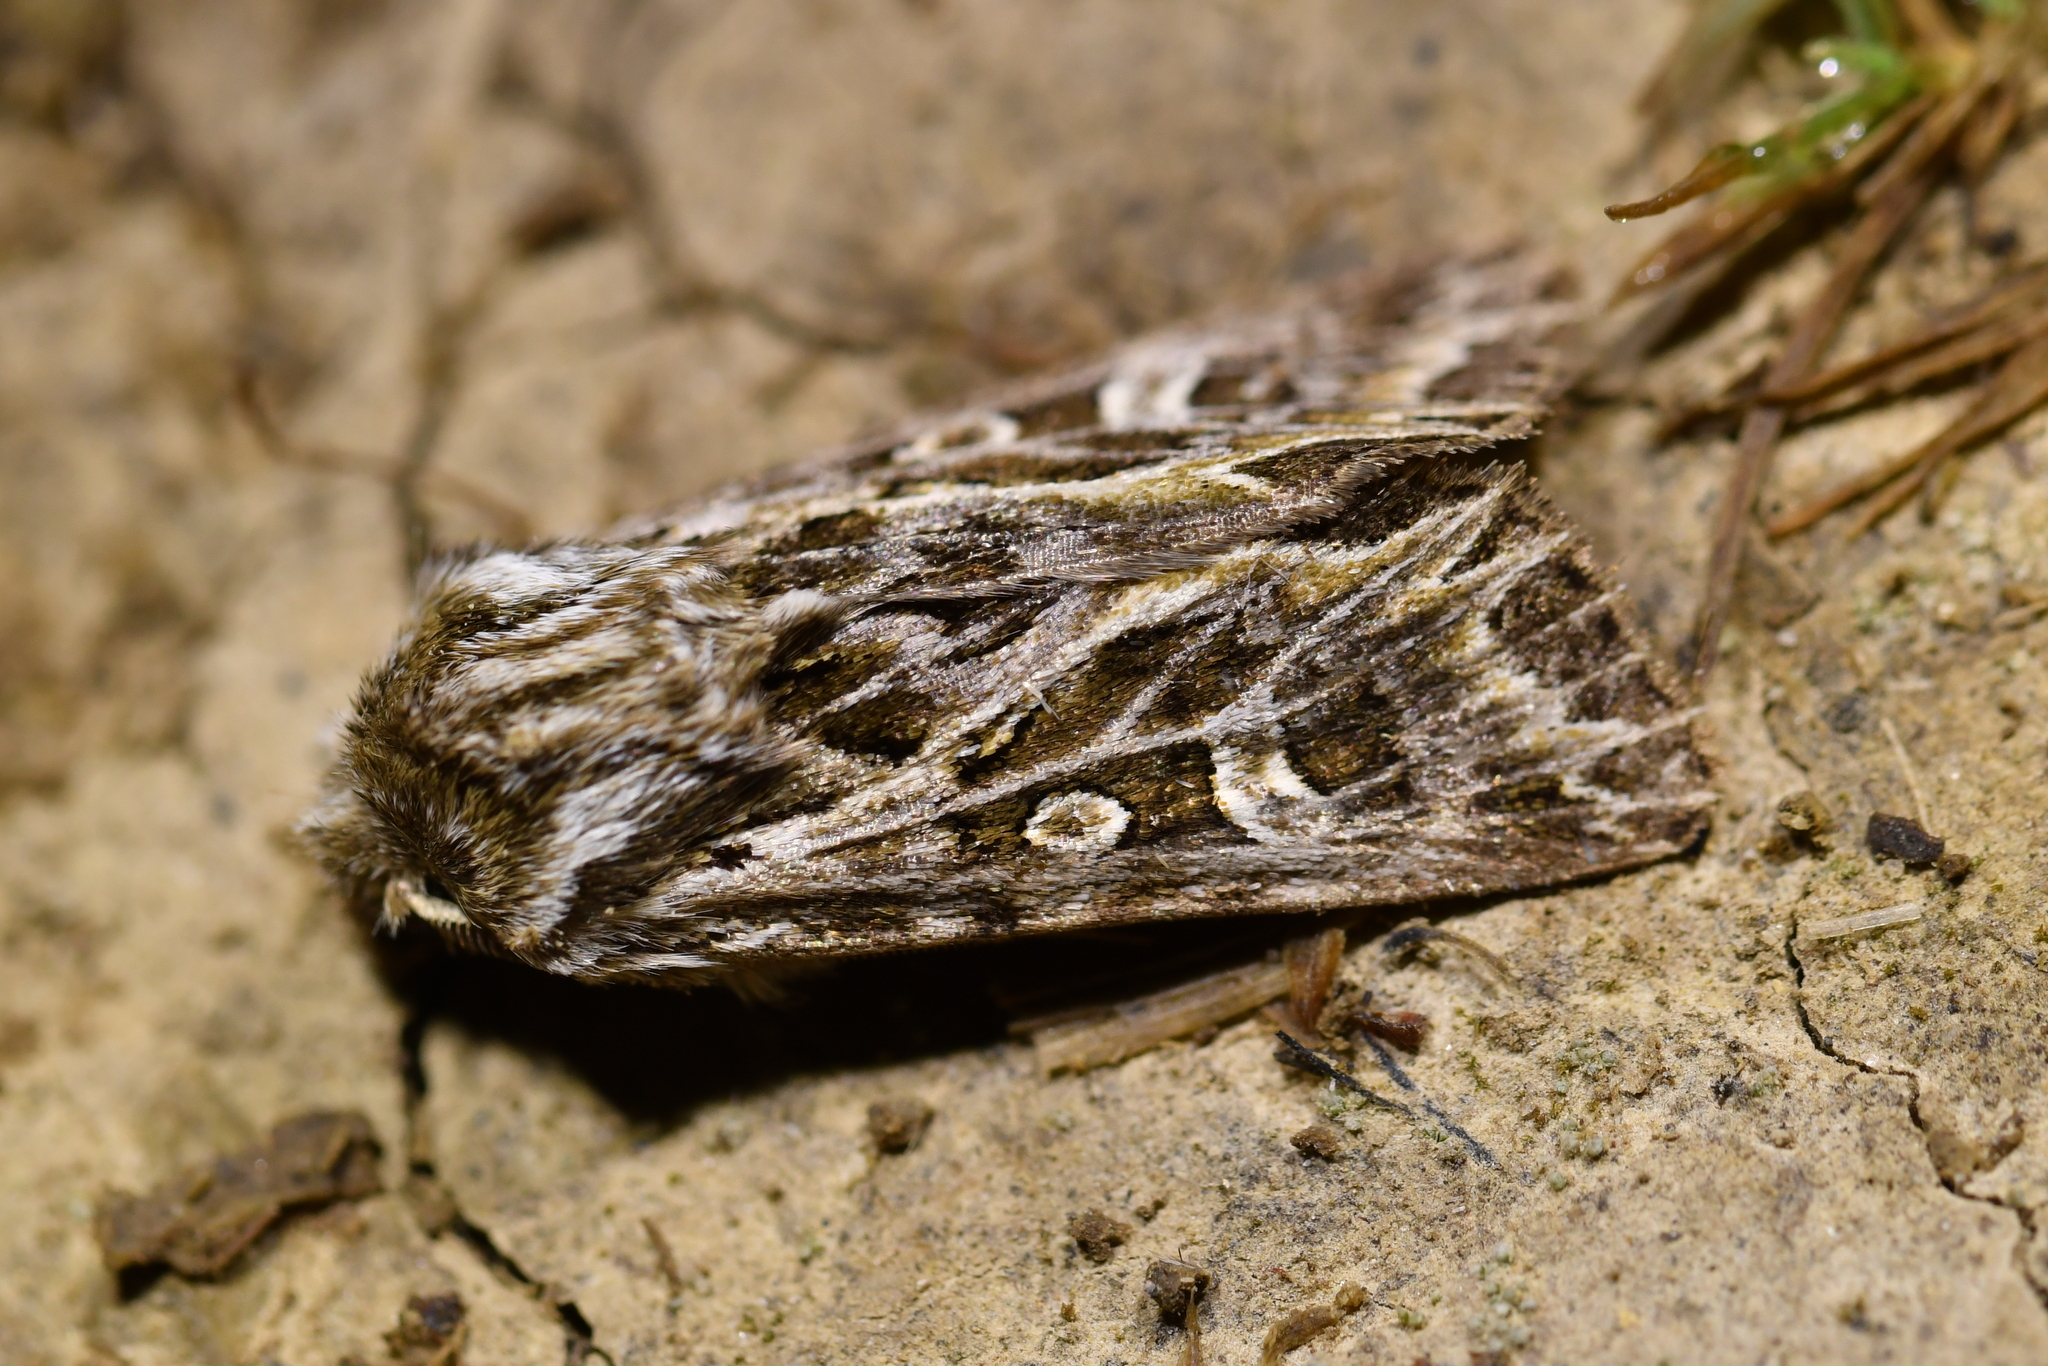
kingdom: Animalia
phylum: Arthropoda
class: Insecta
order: Lepidoptera
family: Noctuidae
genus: Ichneutica
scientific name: Ichneutica
